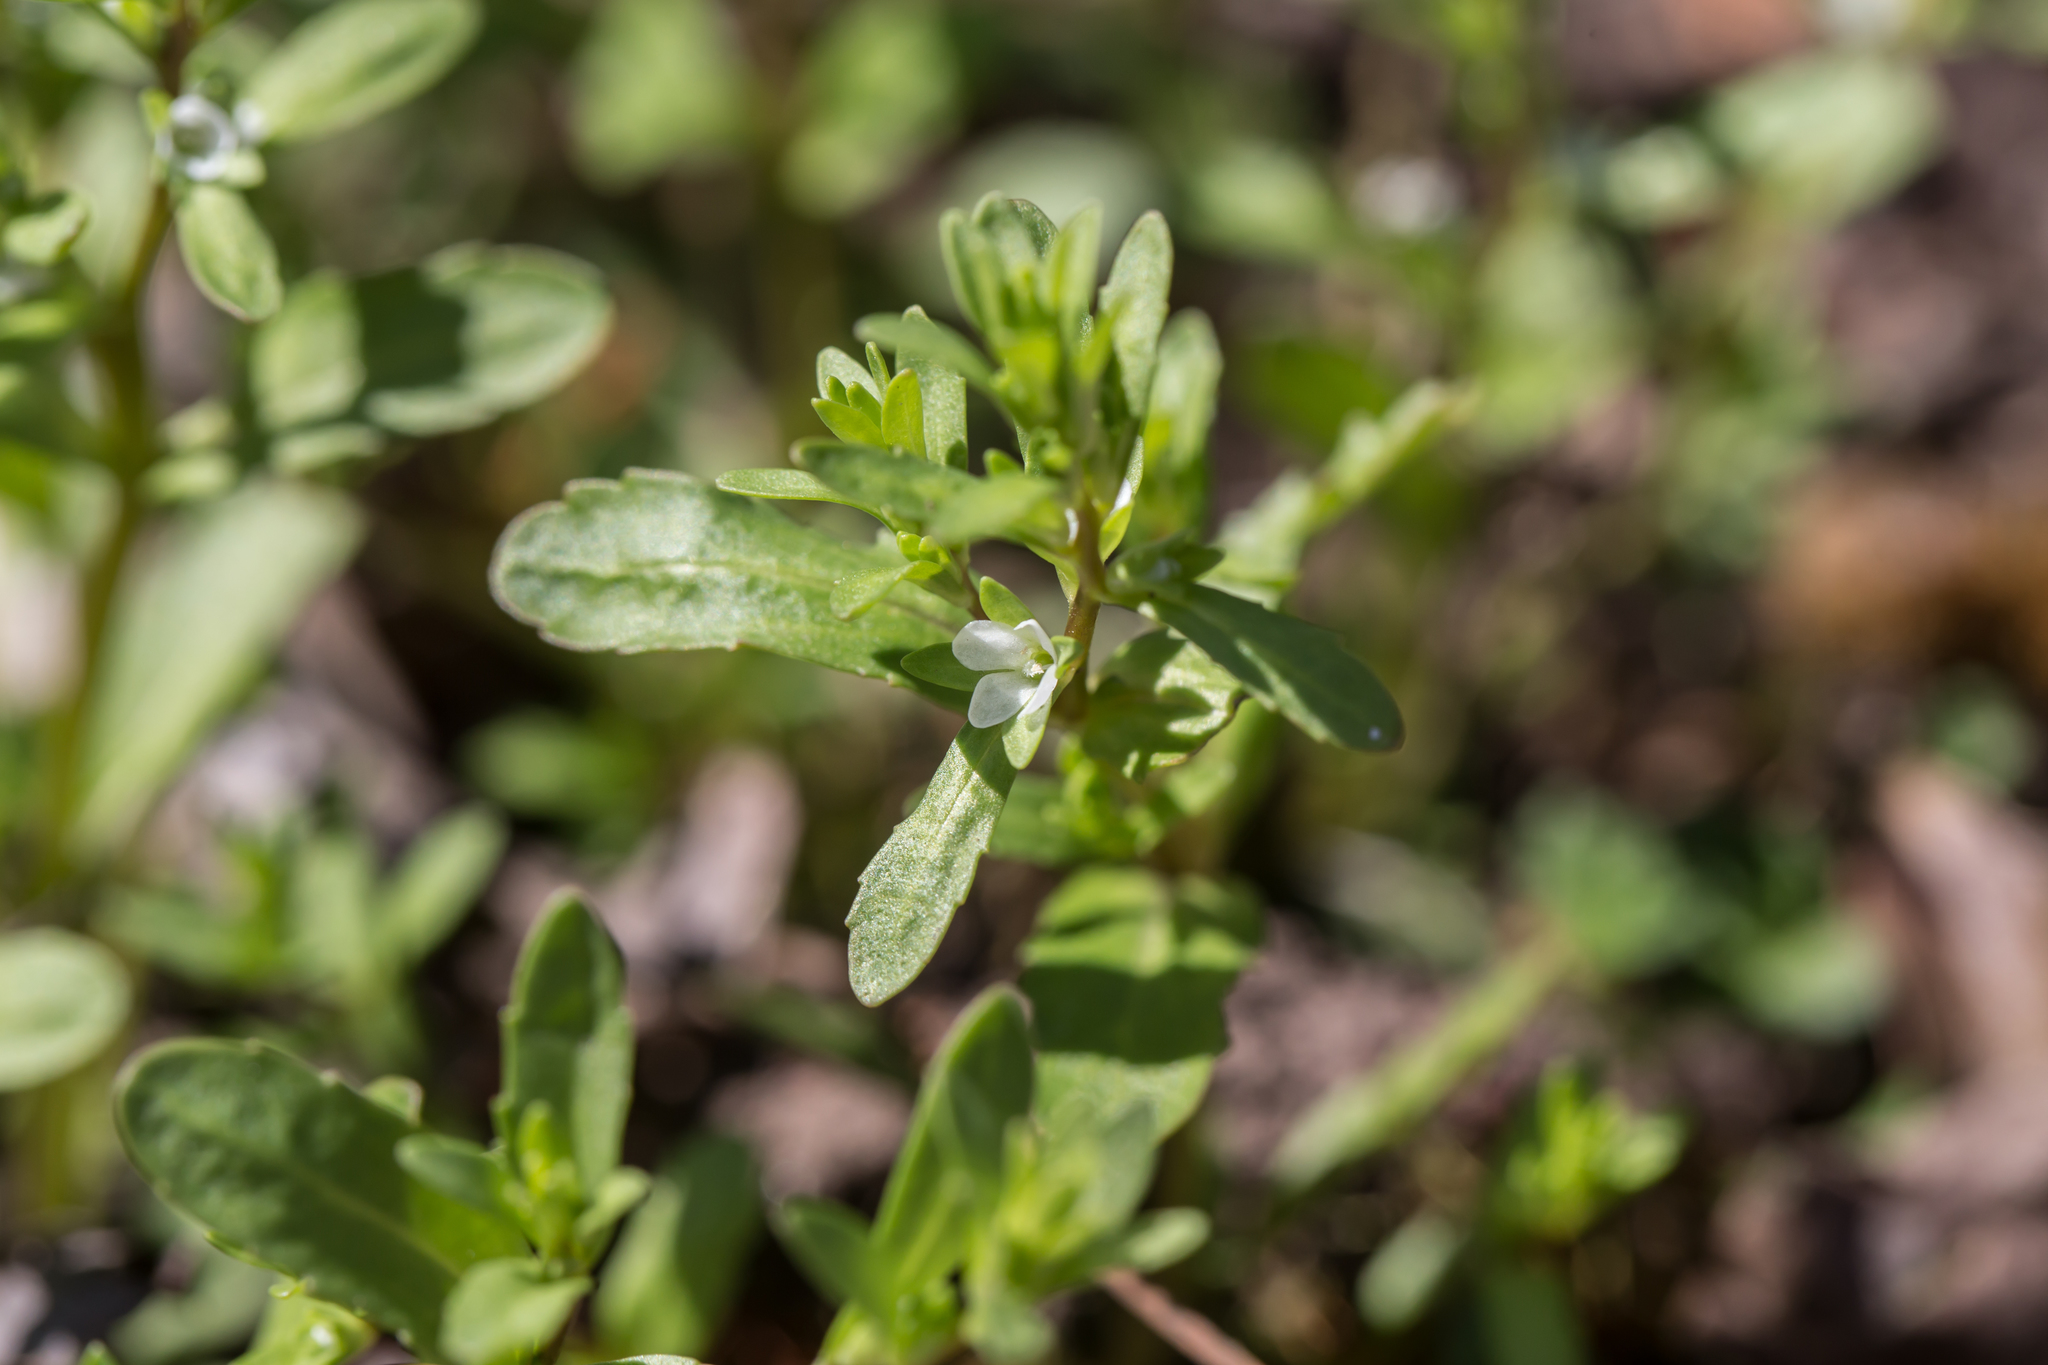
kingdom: Plantae
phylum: Tracheophyta
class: Magnoliopsida
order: Lamiales
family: Plantaginaceae
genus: Veronica
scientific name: Veronica peregrina
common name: Neckweed
